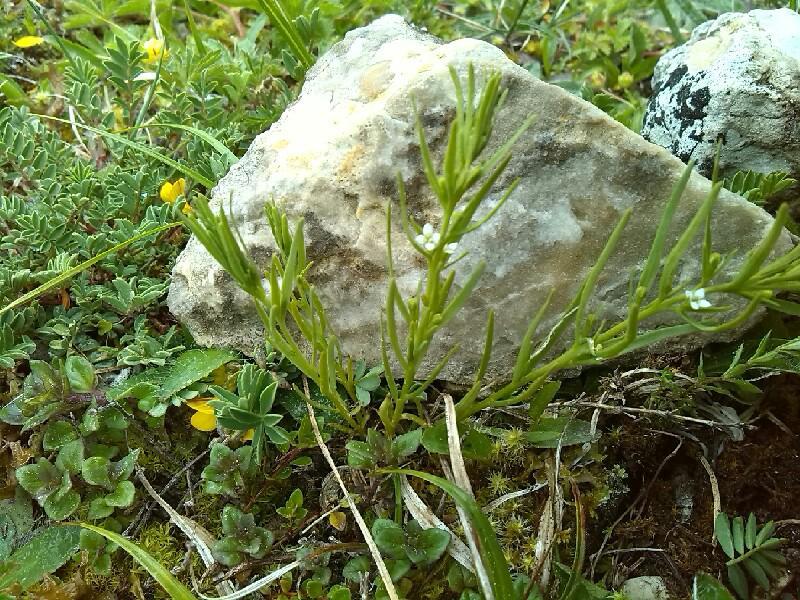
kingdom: Plantae
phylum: Tracheophyta
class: Magnoliopsida
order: Santalales
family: Thesiaceae
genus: Thesium
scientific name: Thesium alpinum
